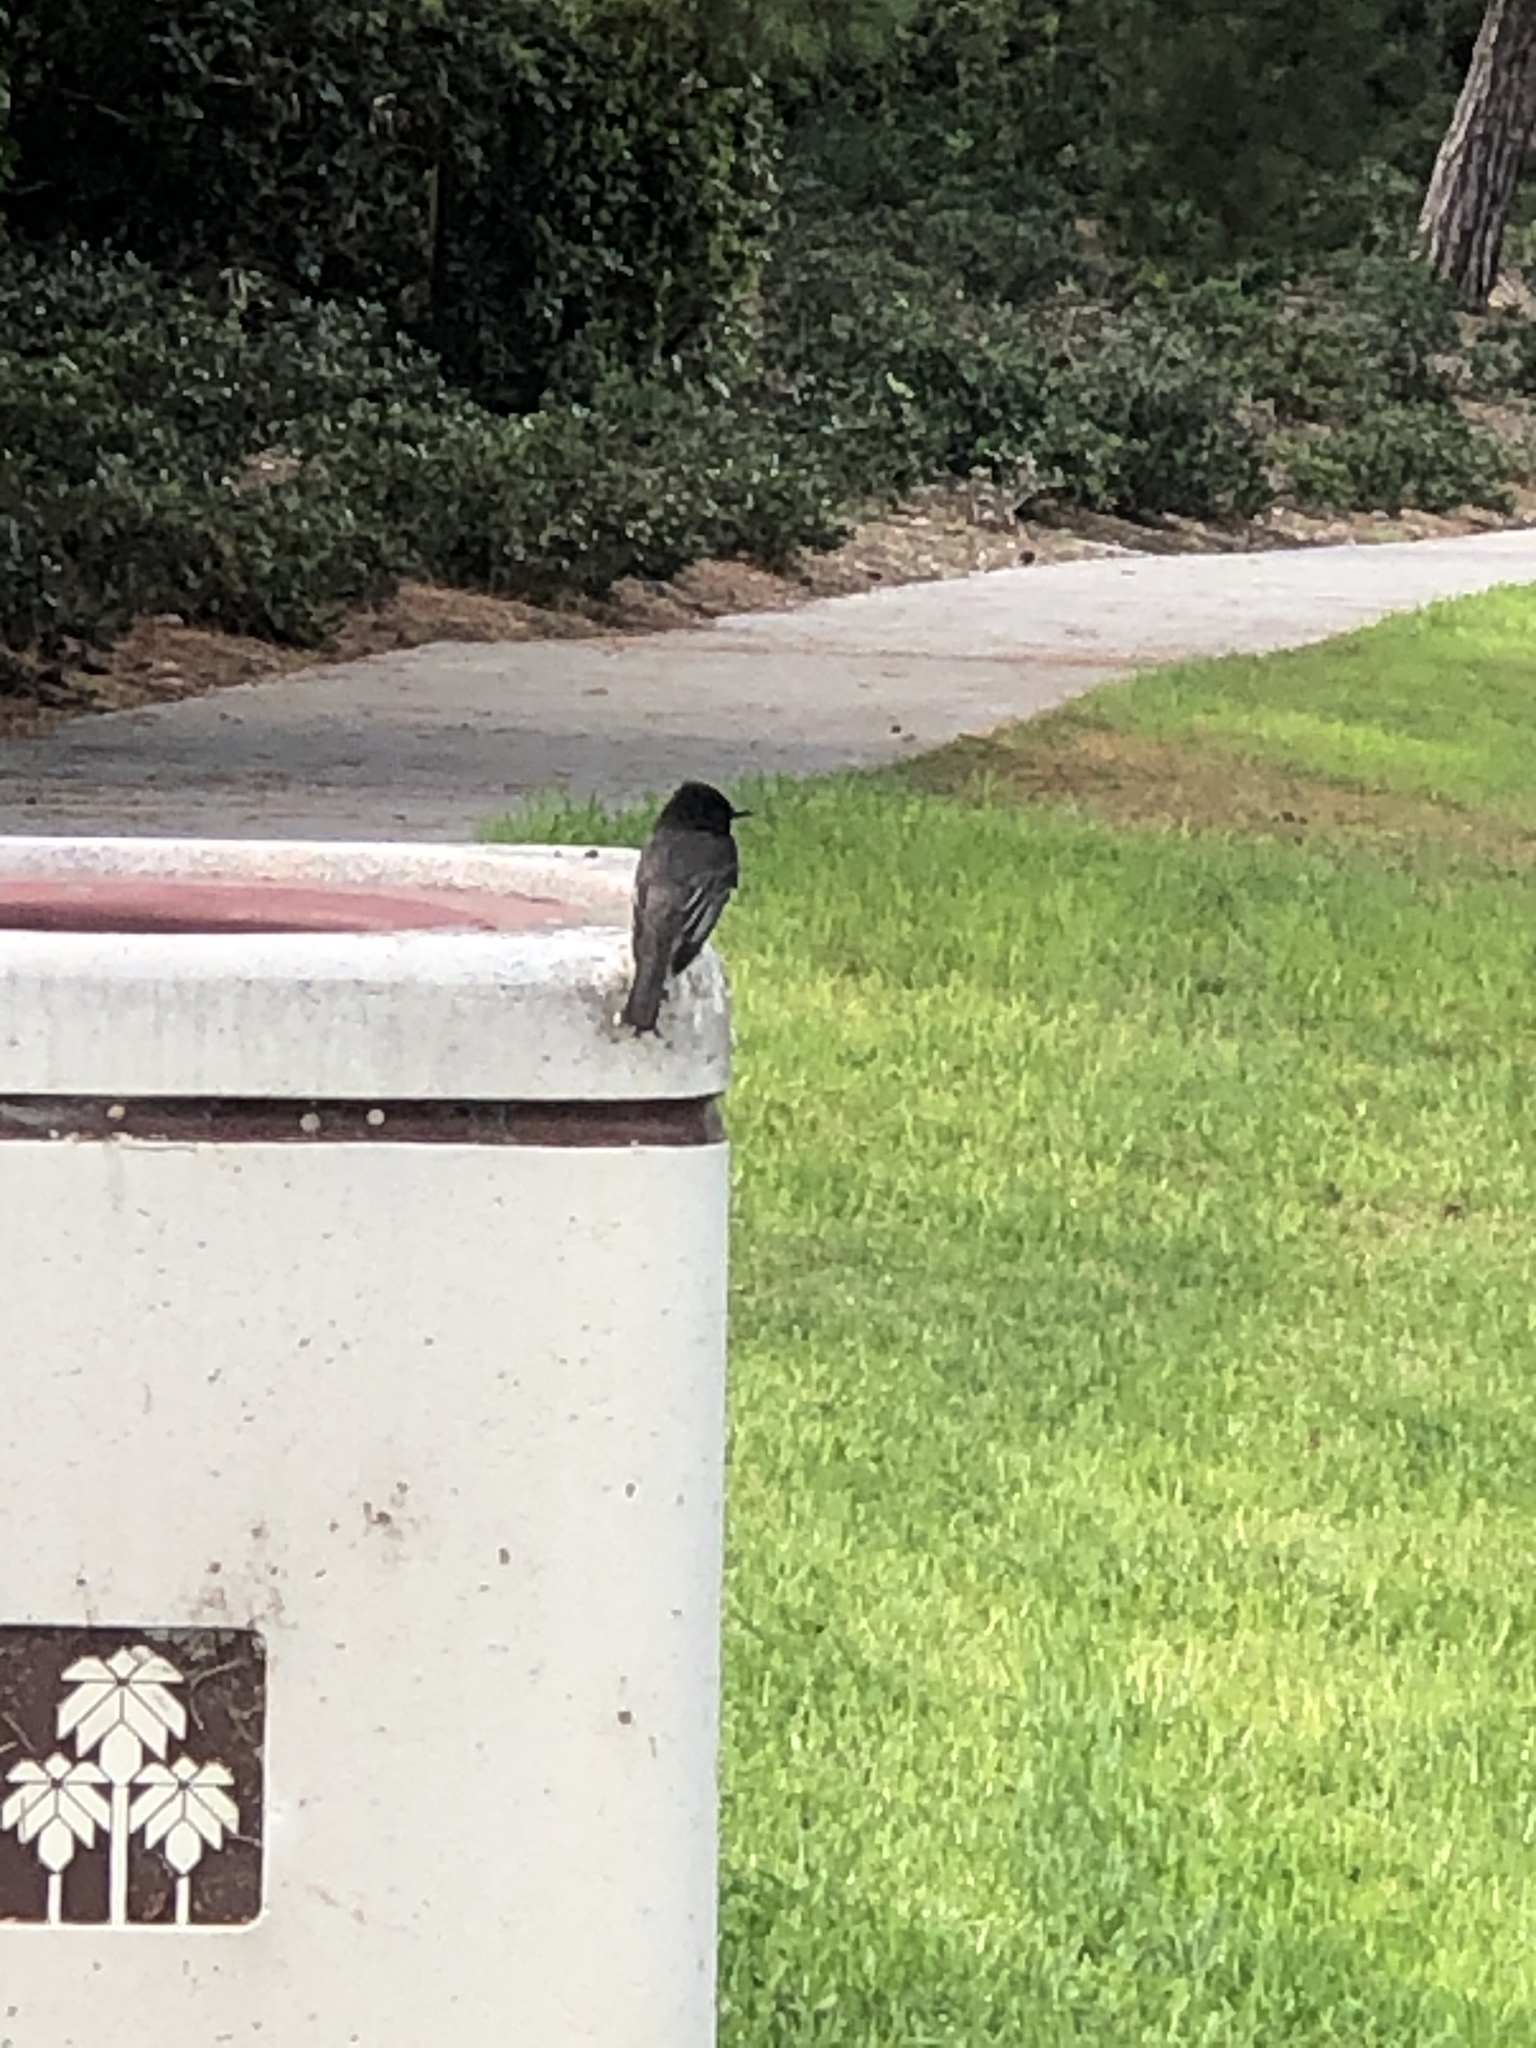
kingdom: Animalia
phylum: Chordata
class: Aves
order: Passeriformes
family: Tyrannidae
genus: Sayornis
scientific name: Sayornis nigricans
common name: Black phoebe
